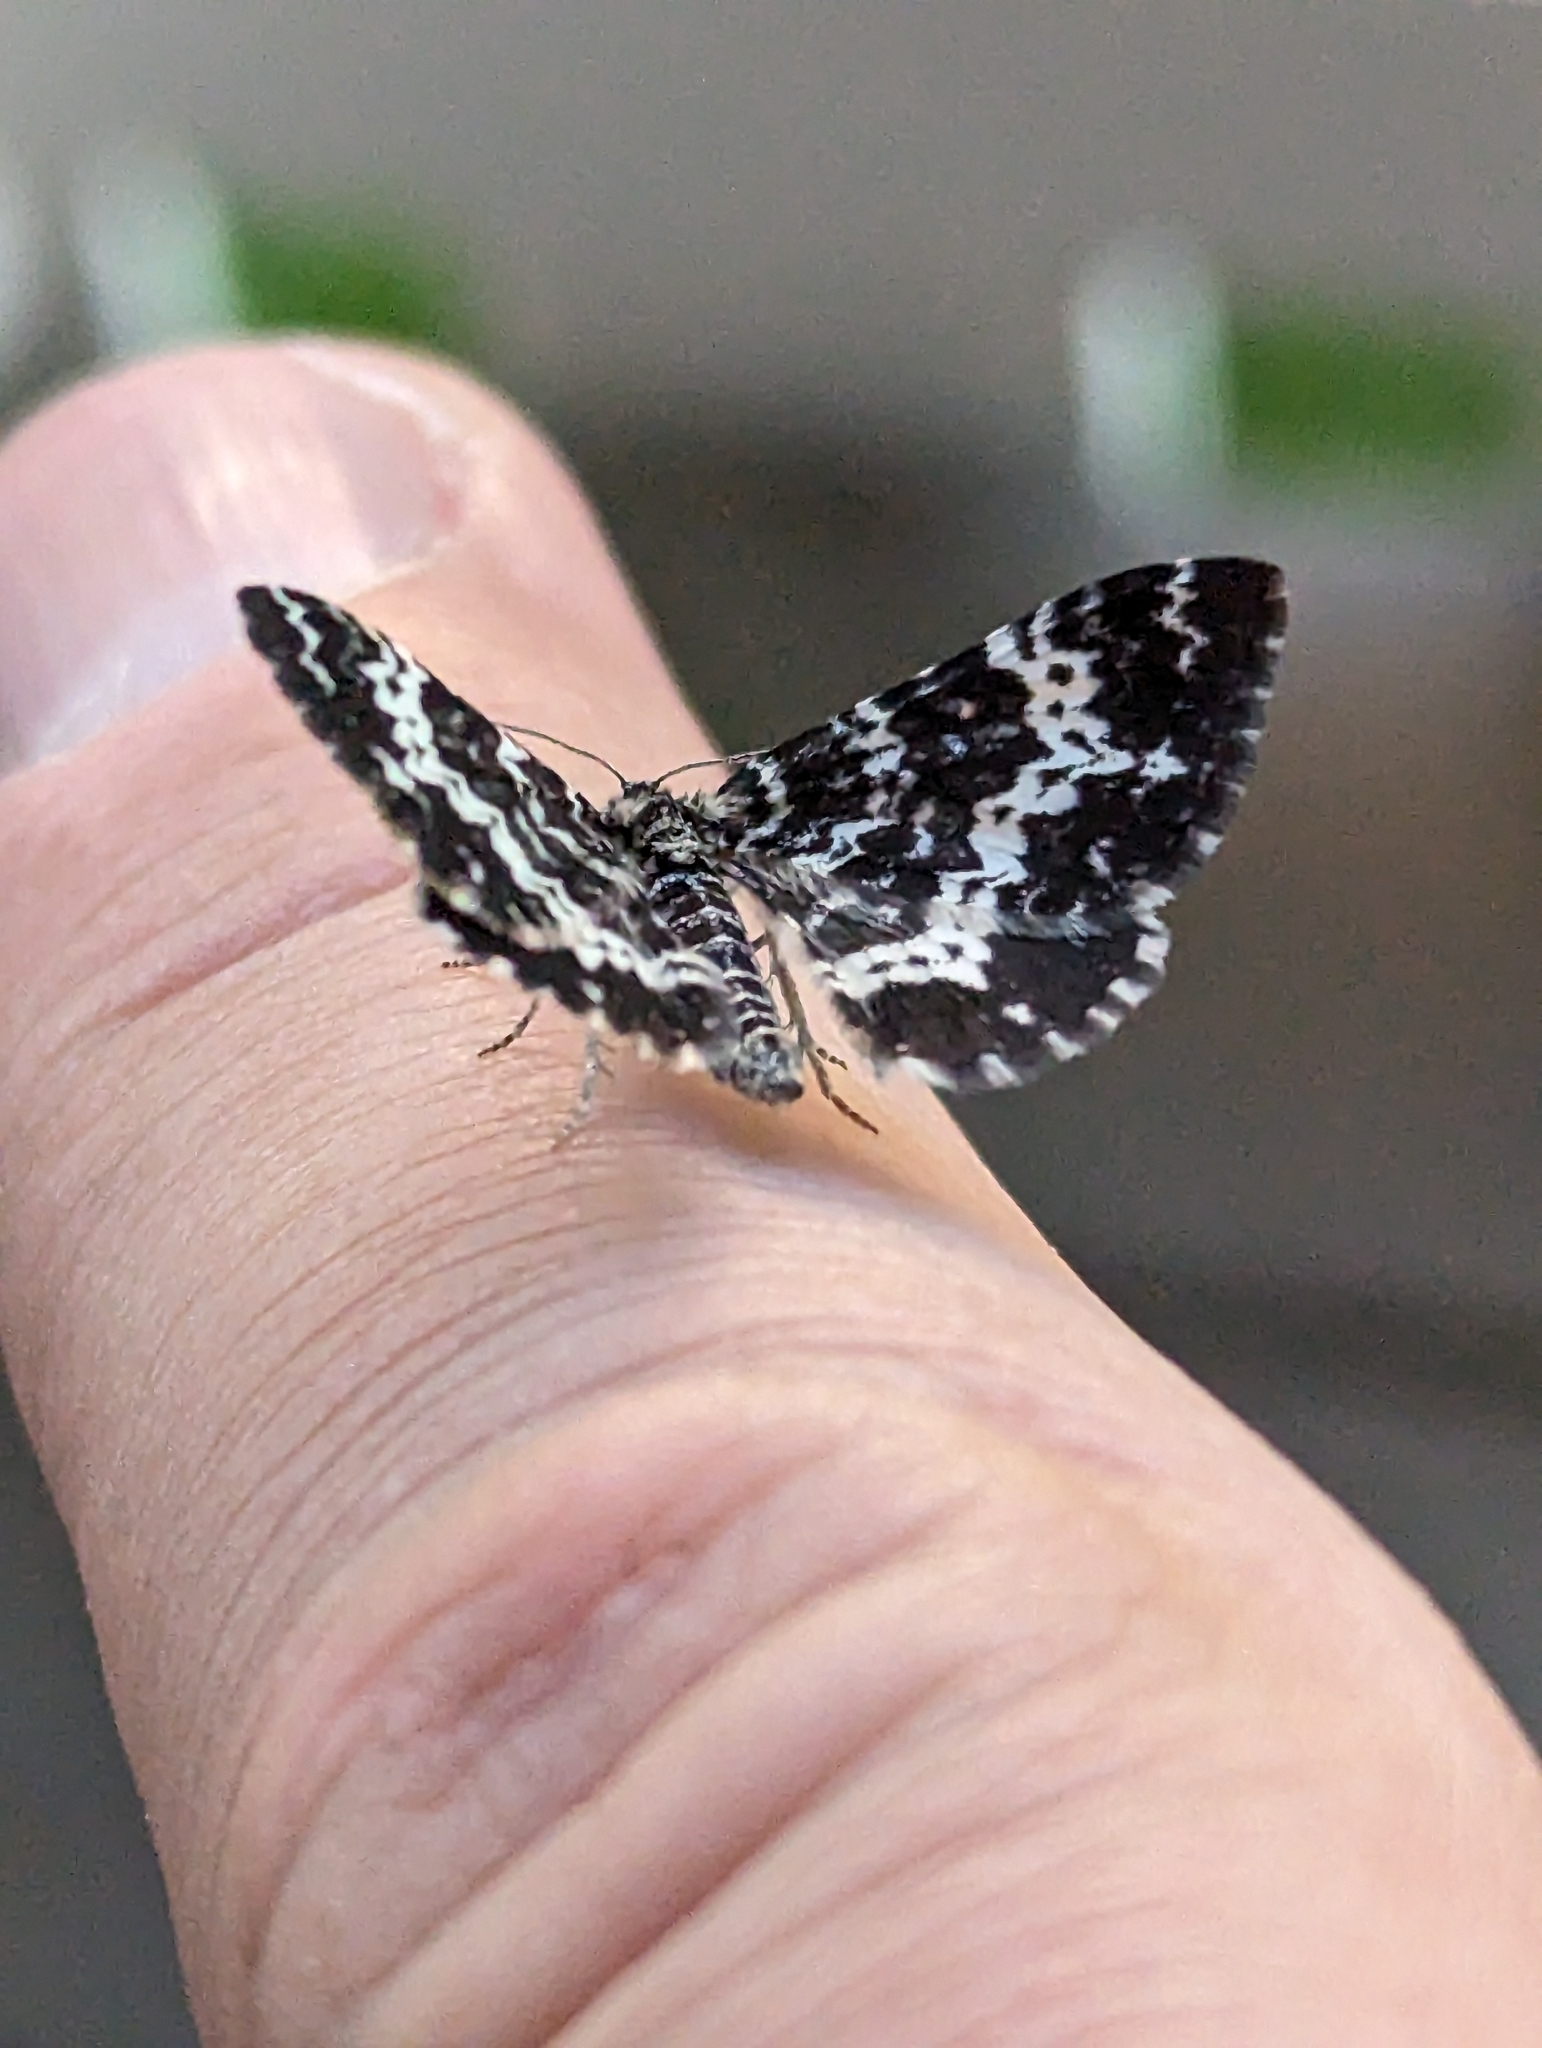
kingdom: Animalia
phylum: Arthropoda
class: Insecta
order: Lepidoptera
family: Geometridae
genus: Rheumaptera
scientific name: Rheumaptera hastata
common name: Argent & sable
